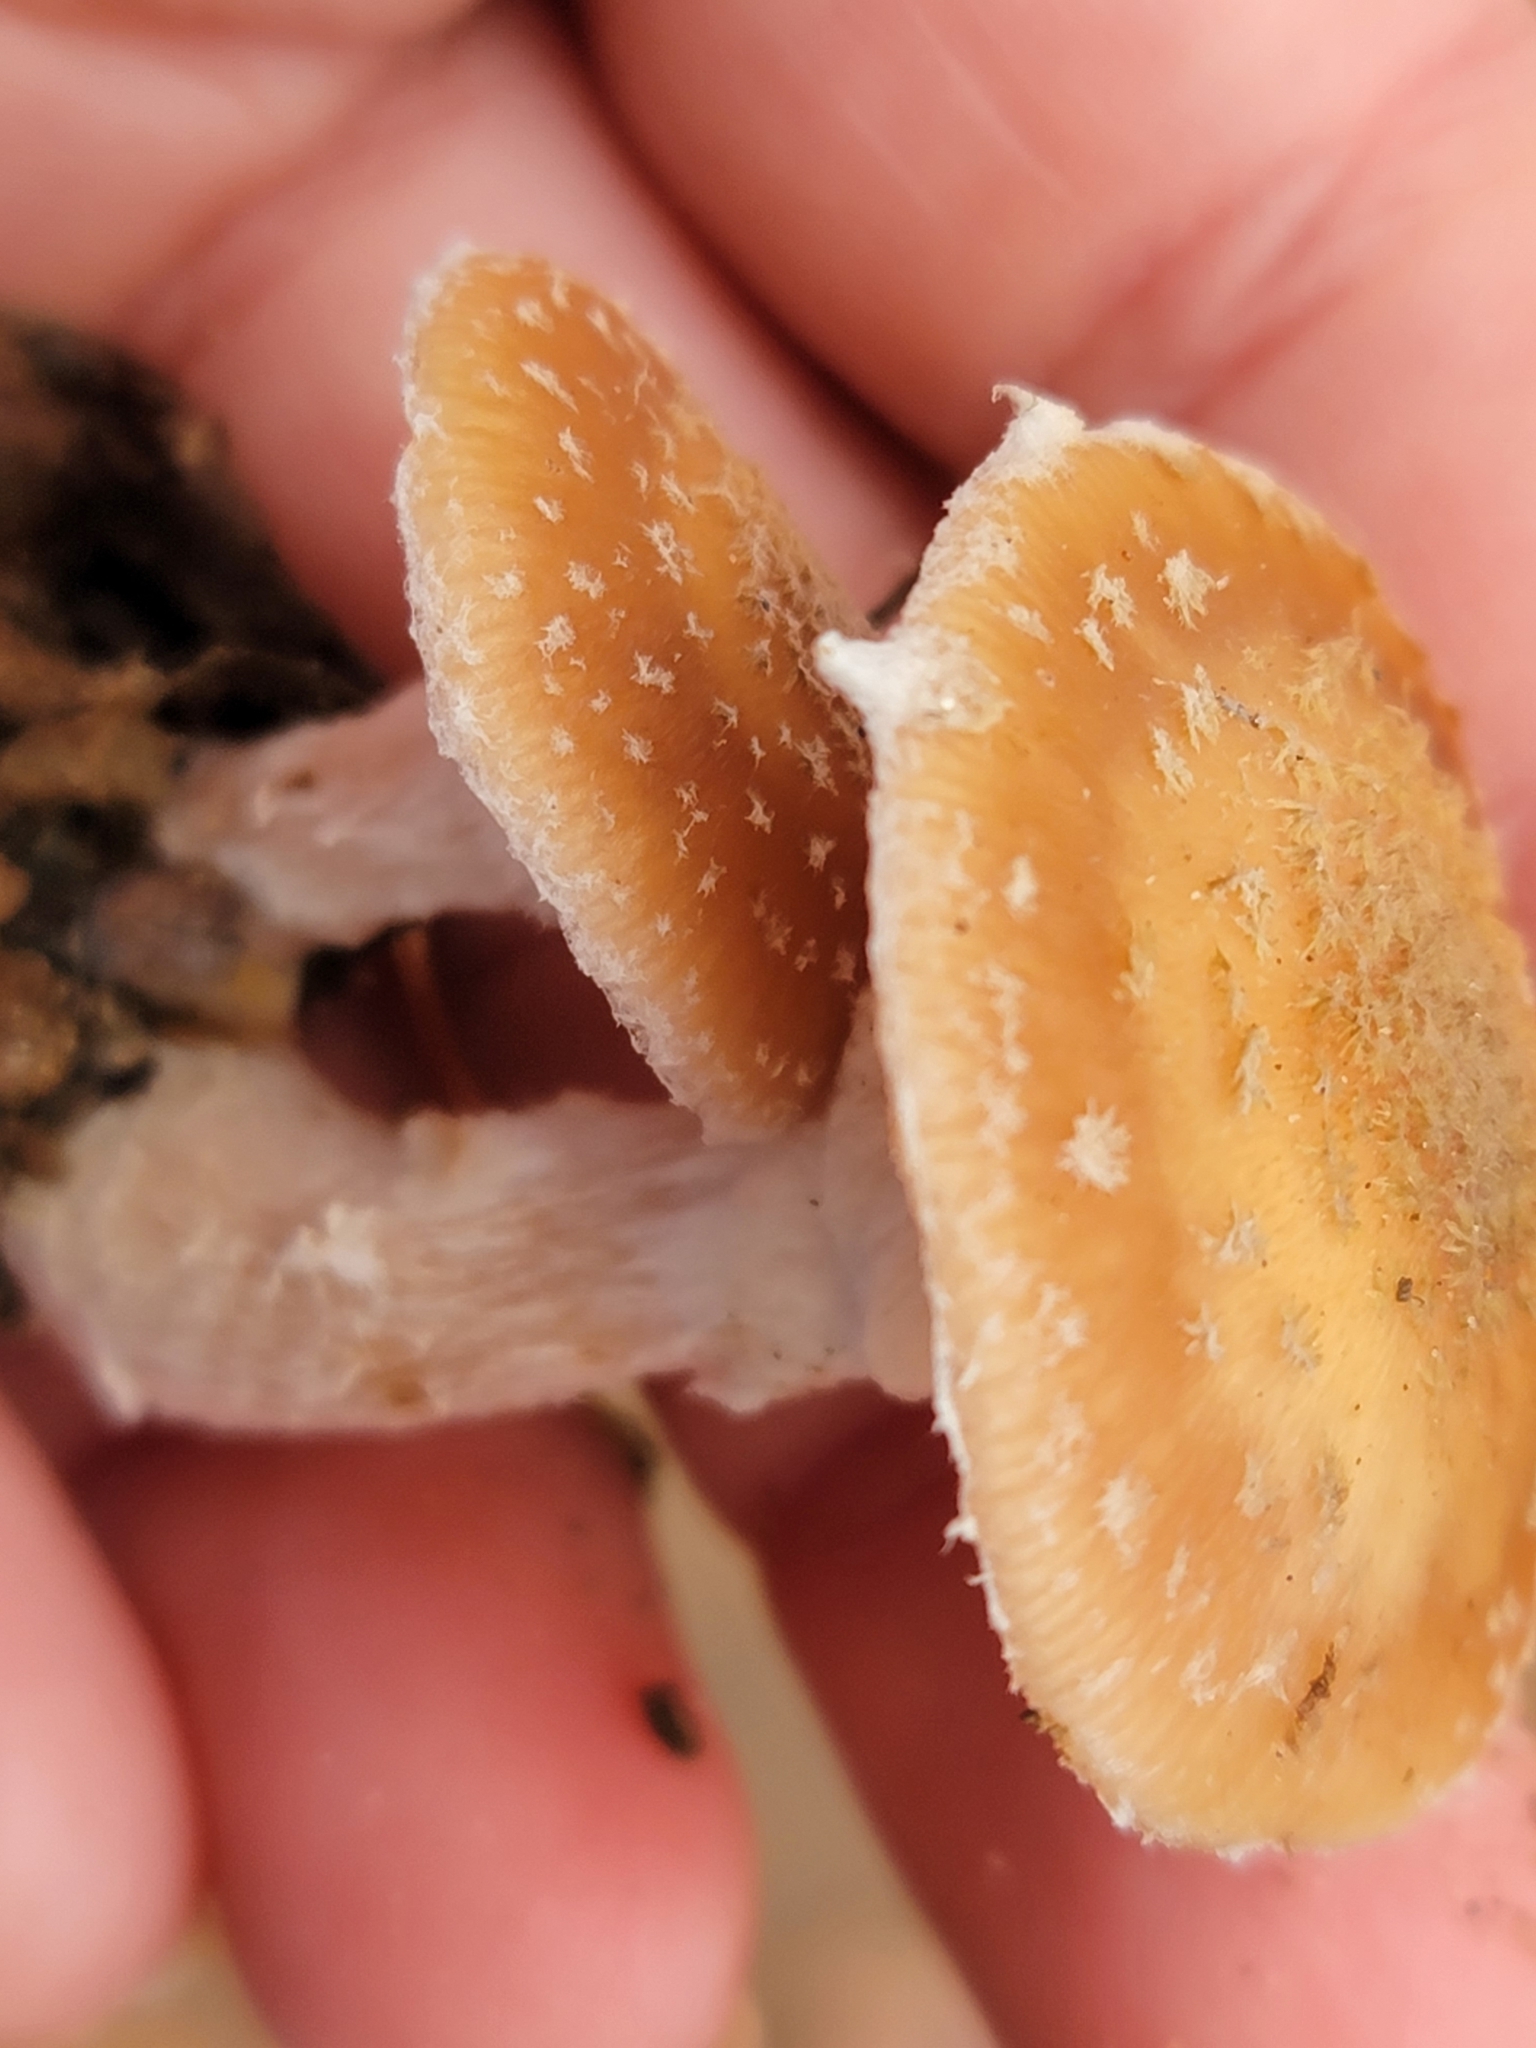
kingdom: Fungi
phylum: Basidiomycota
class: Agaricomycetes
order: Agaricales
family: Physalacriaceae
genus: Armillaria
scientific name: Armillaria gallica
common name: Bulbous honey fungus
